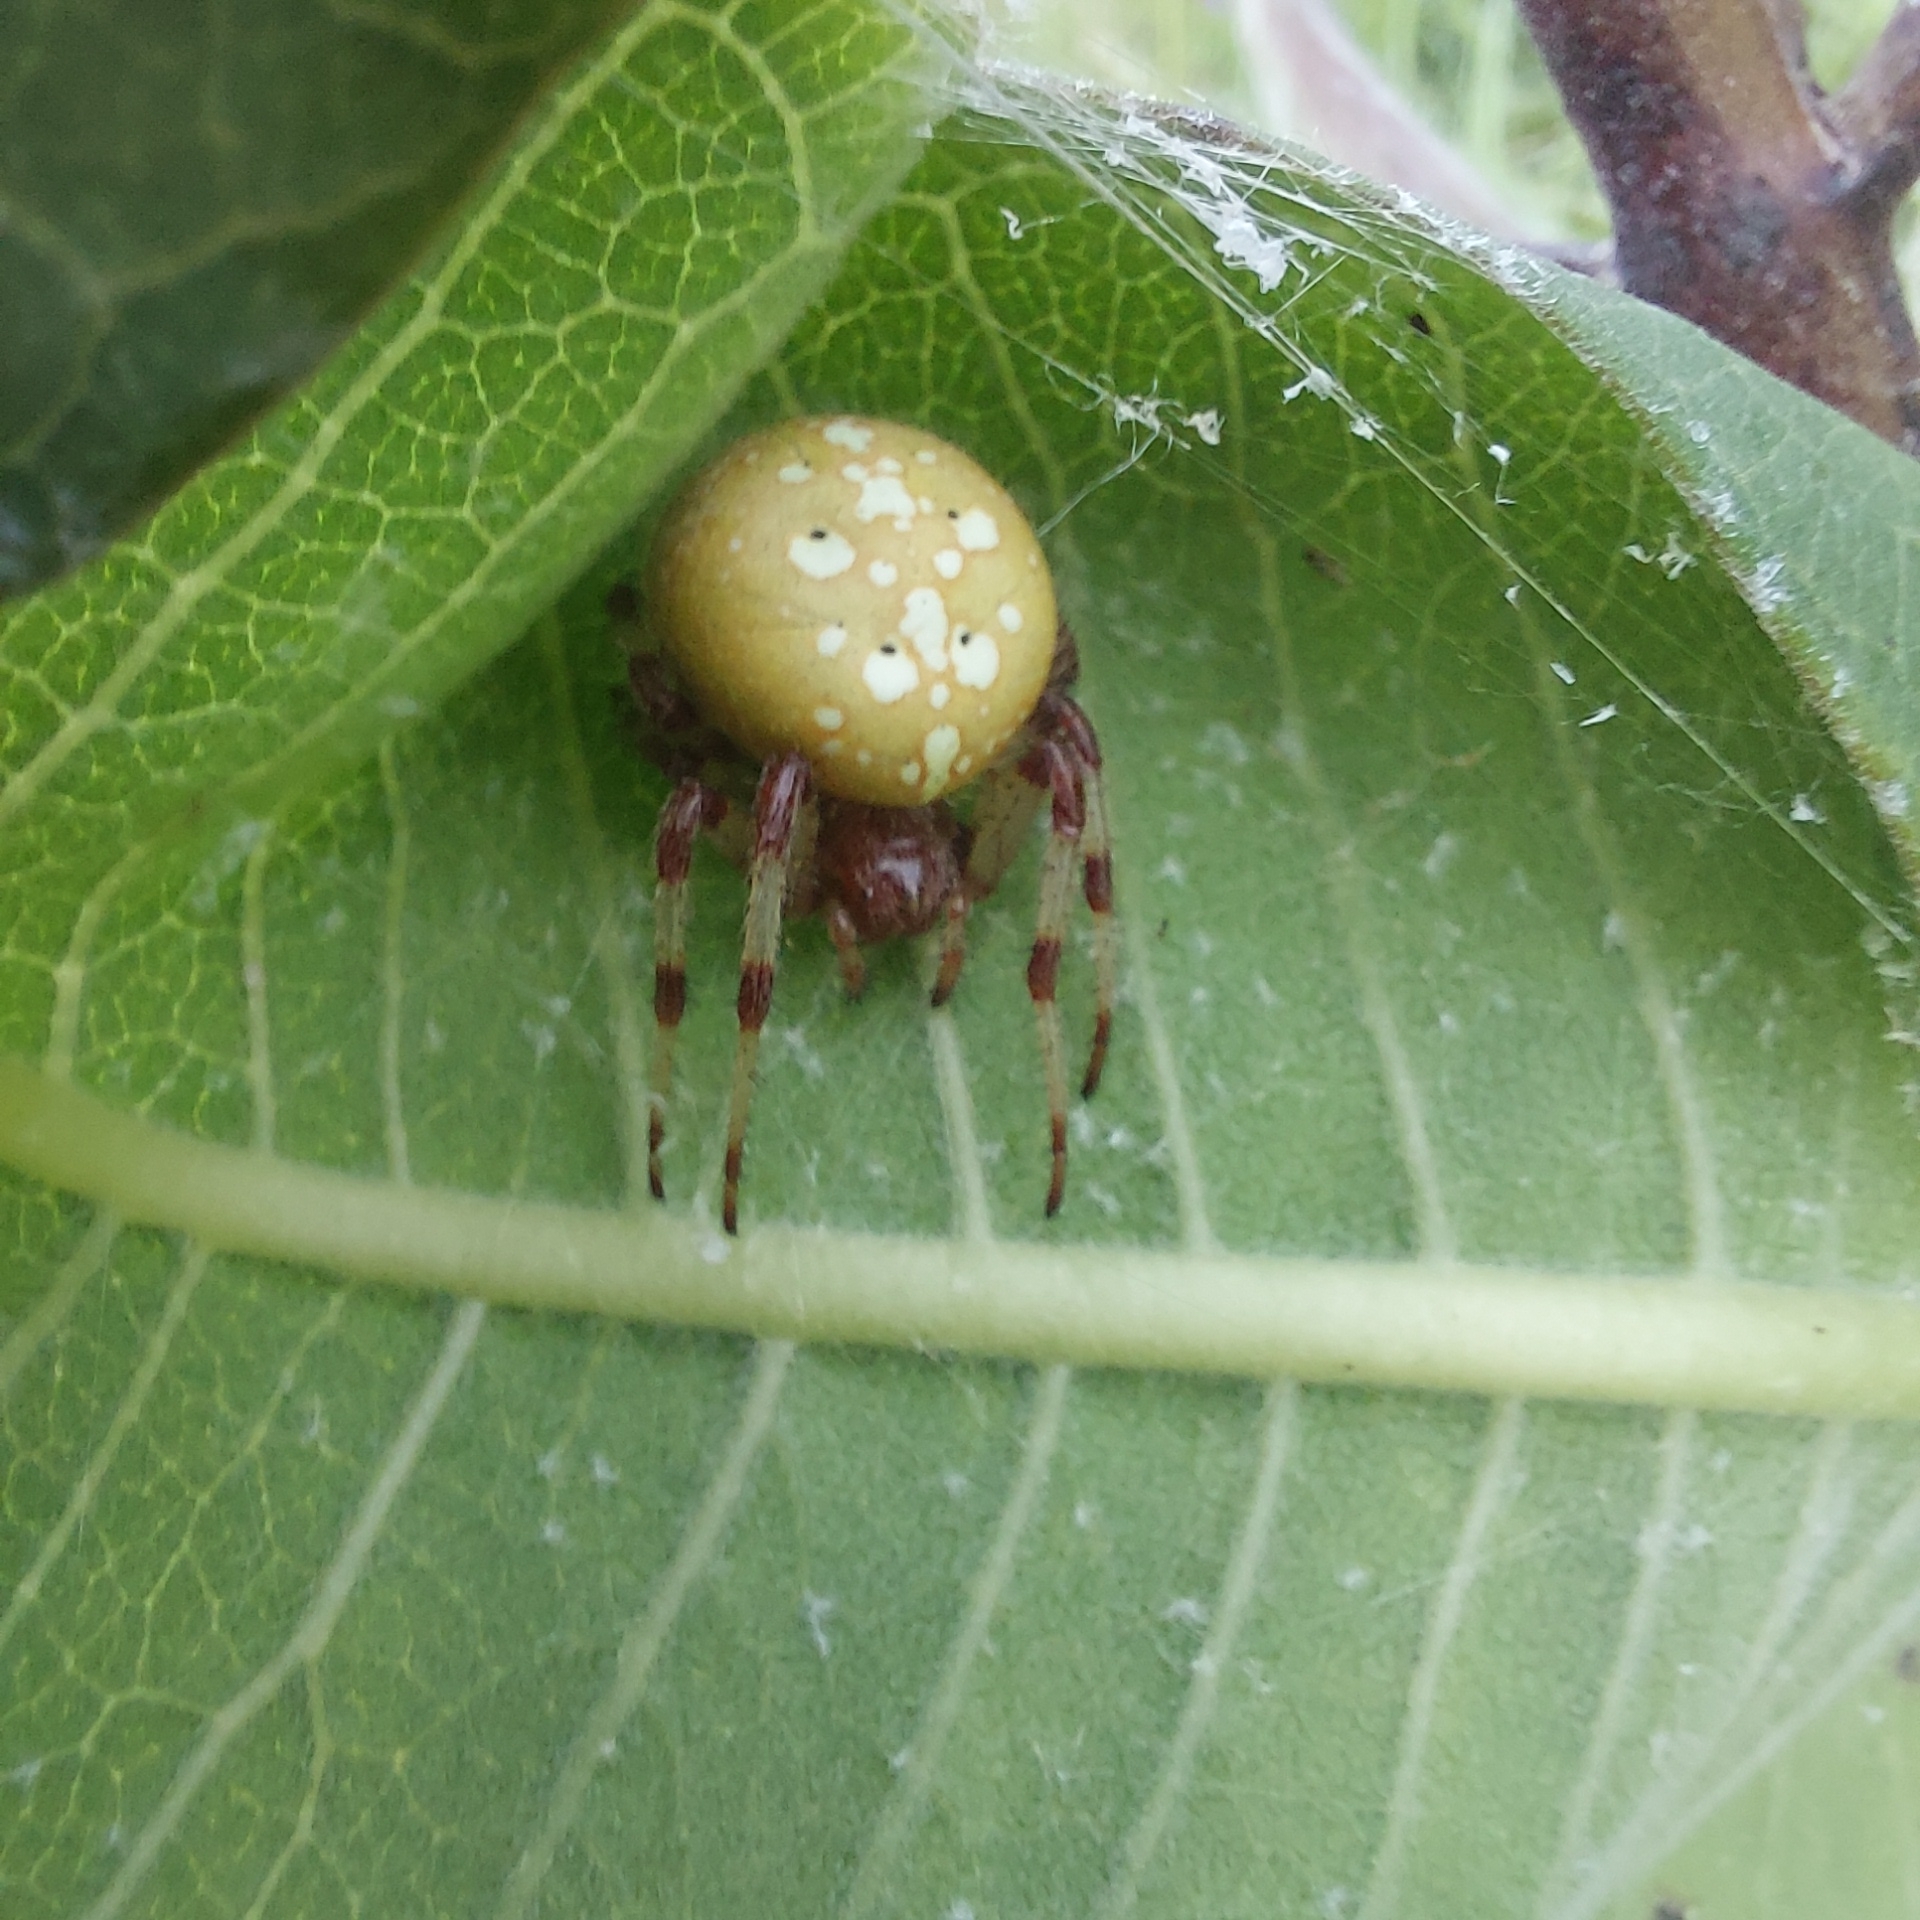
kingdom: Animalia
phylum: Arthropoda
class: Arachnida
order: Araneae
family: Araneidae
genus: Araneus
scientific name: Araneus trifolium
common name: Shamrock orbweaver
